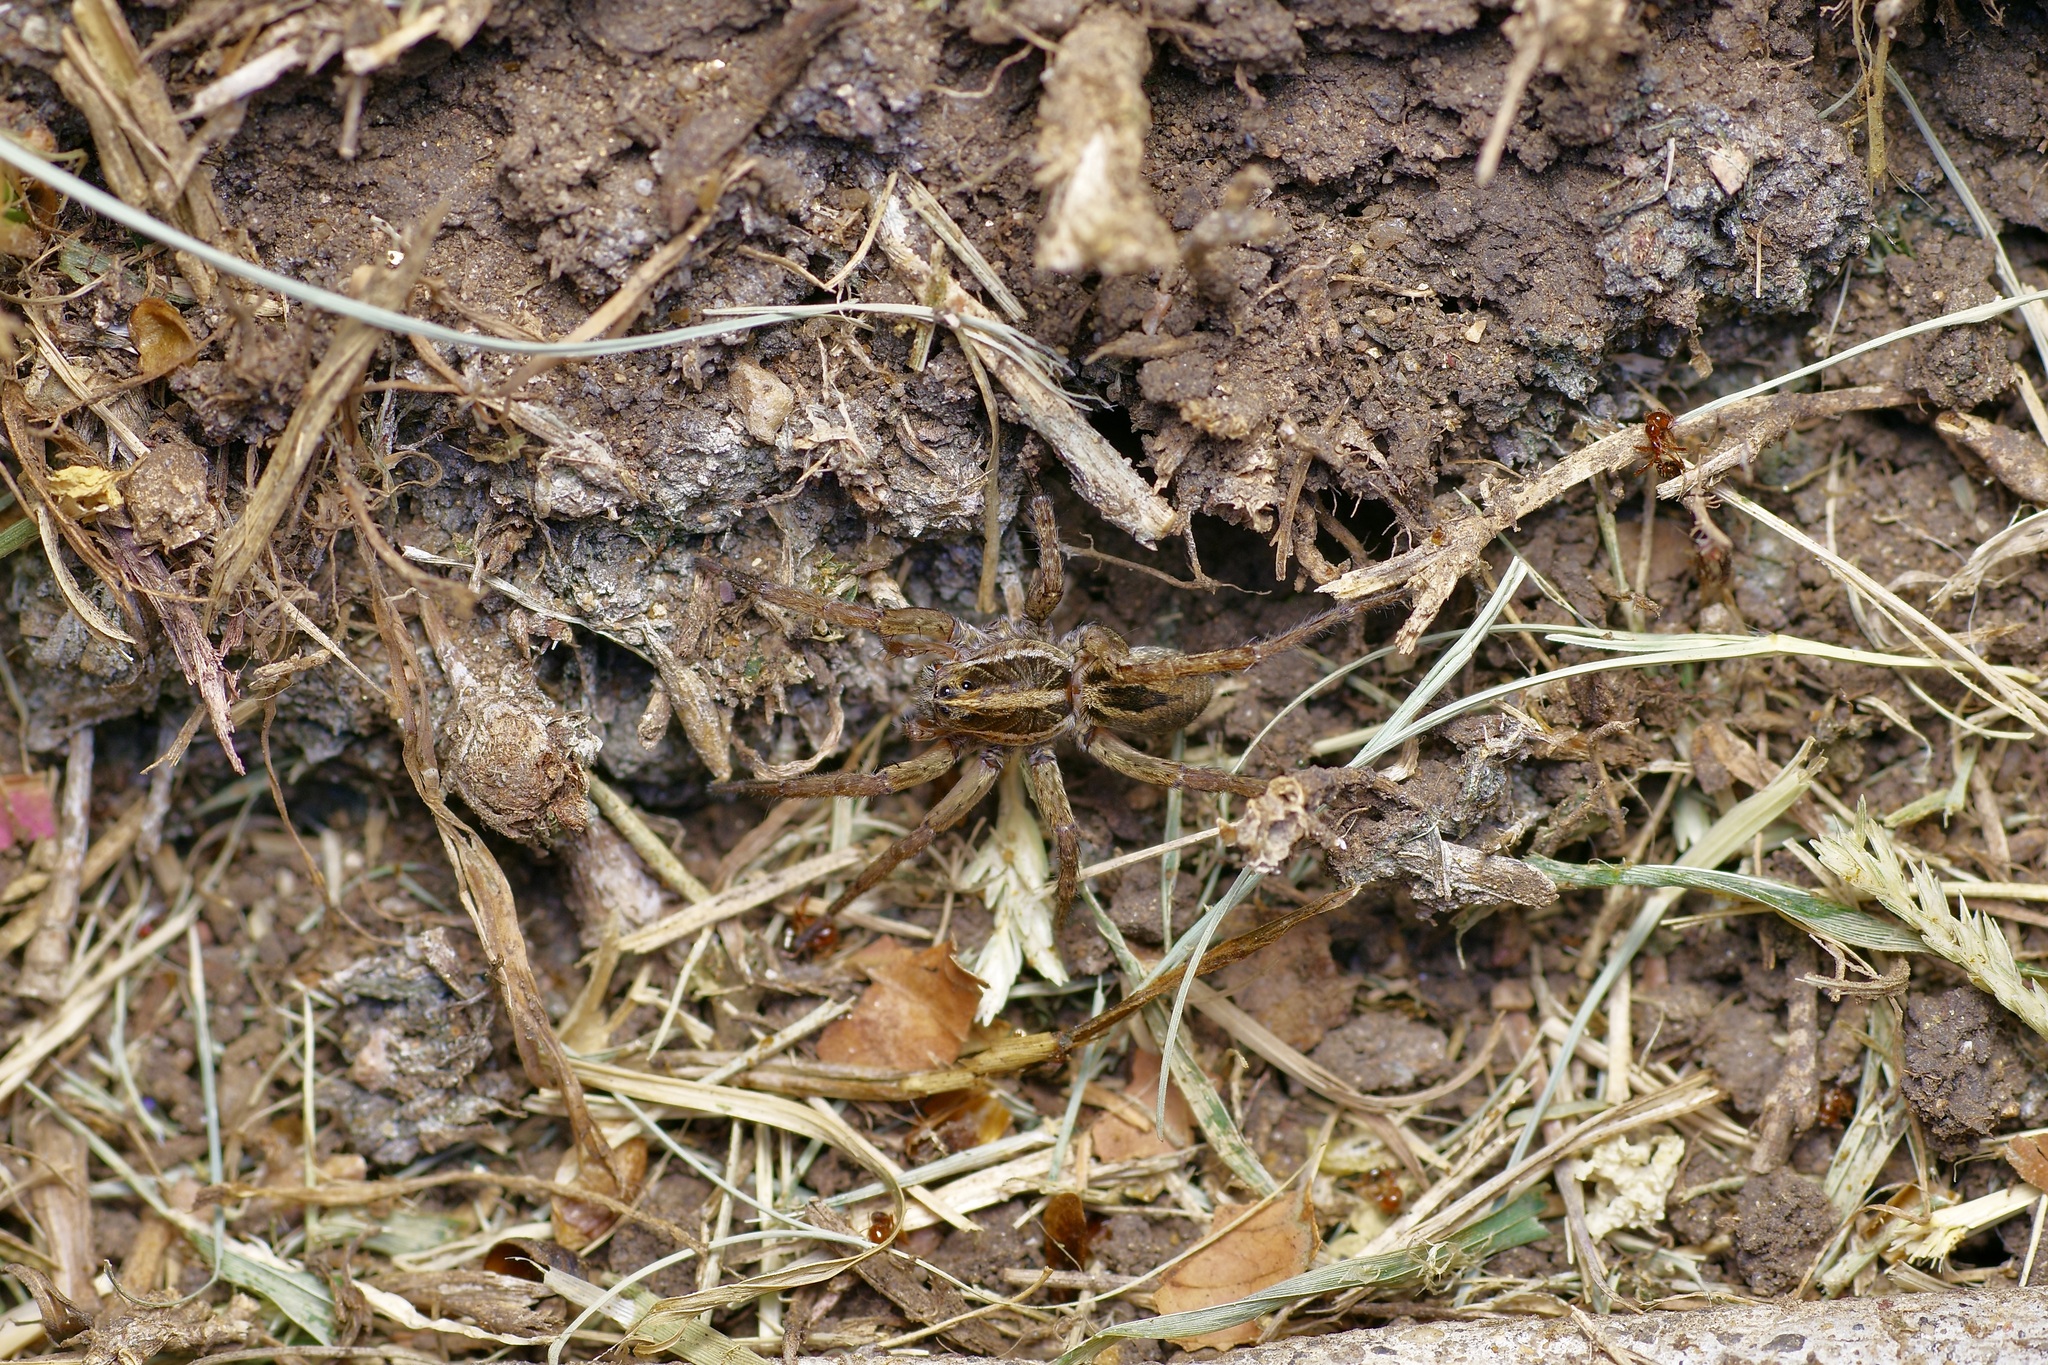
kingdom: Animalia
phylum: Arthropoda
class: Arachnida
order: Araneae
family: Lycosidae
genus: Tigrosa
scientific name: Tigrosa annexa
